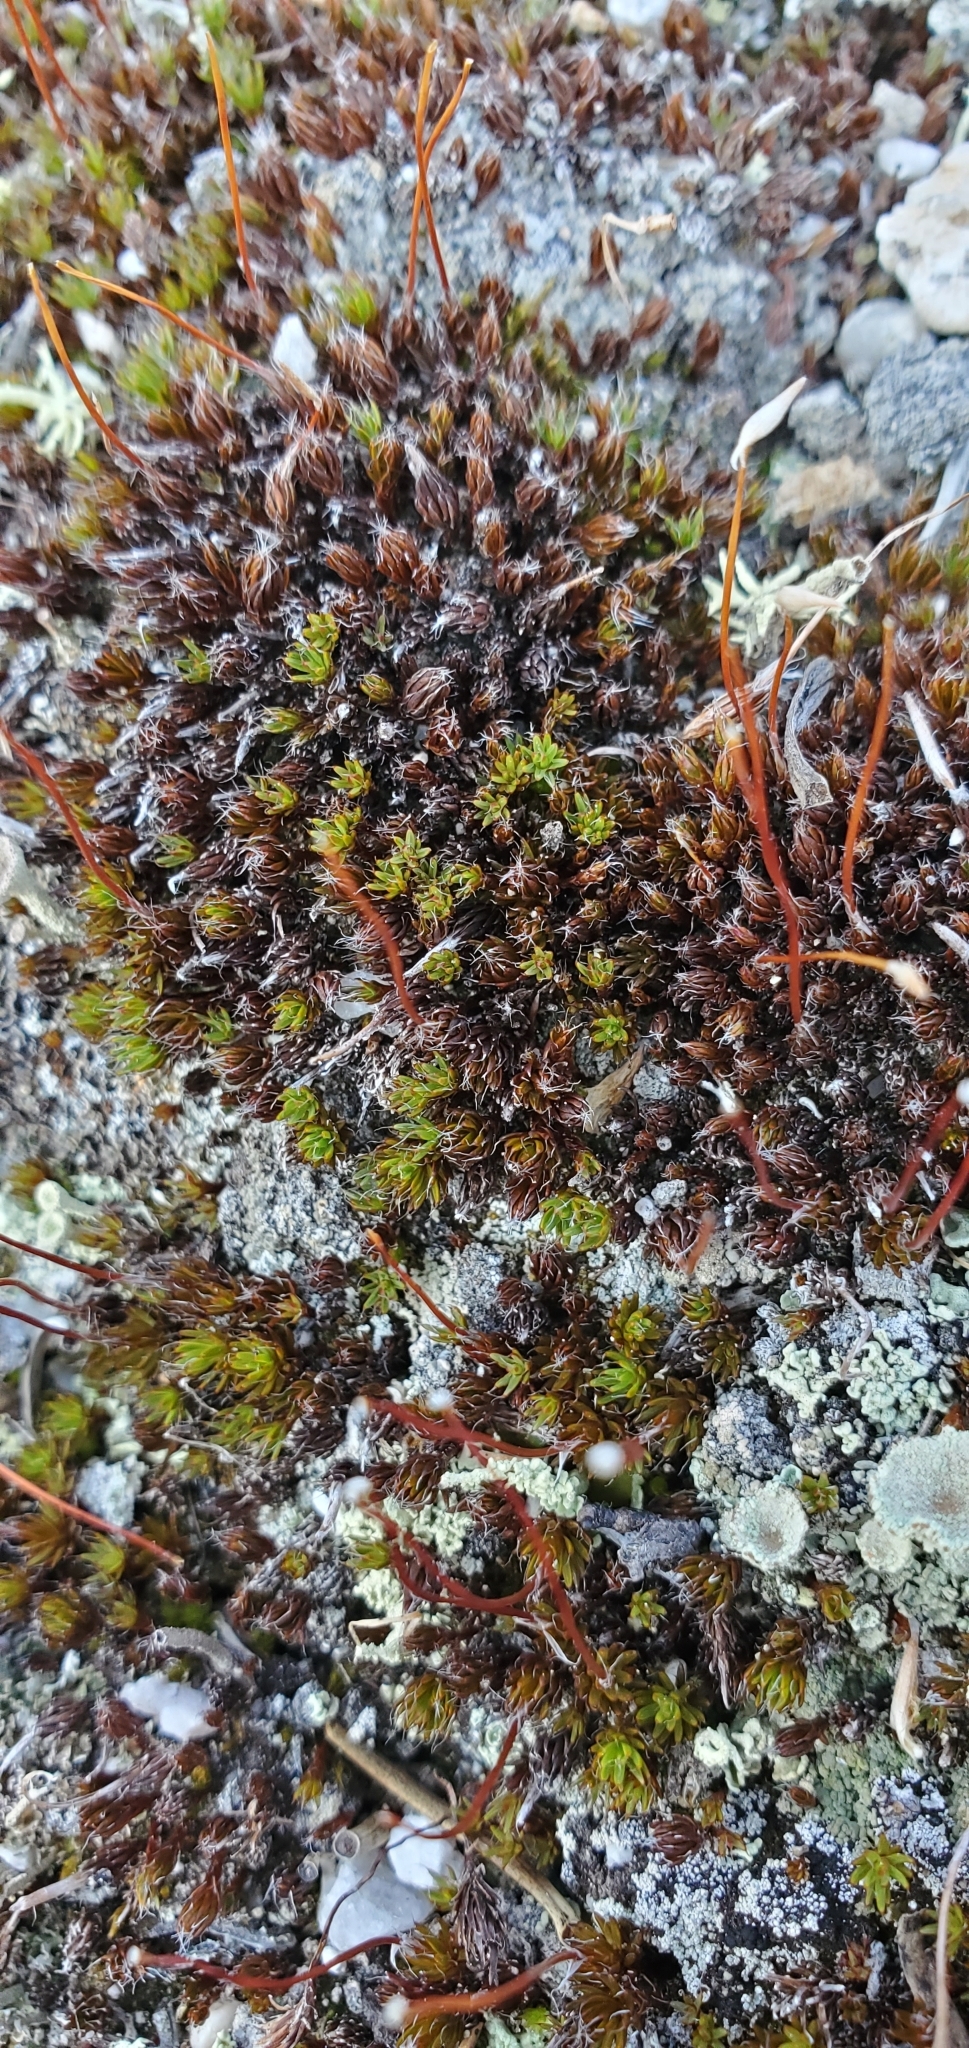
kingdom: Plantae
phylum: Bryophyta
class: Polytrichopsida
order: Polytrichales
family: Polytrichaceae
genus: Polytrichum
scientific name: Polytrichum piliferum
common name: Bristly haircap
